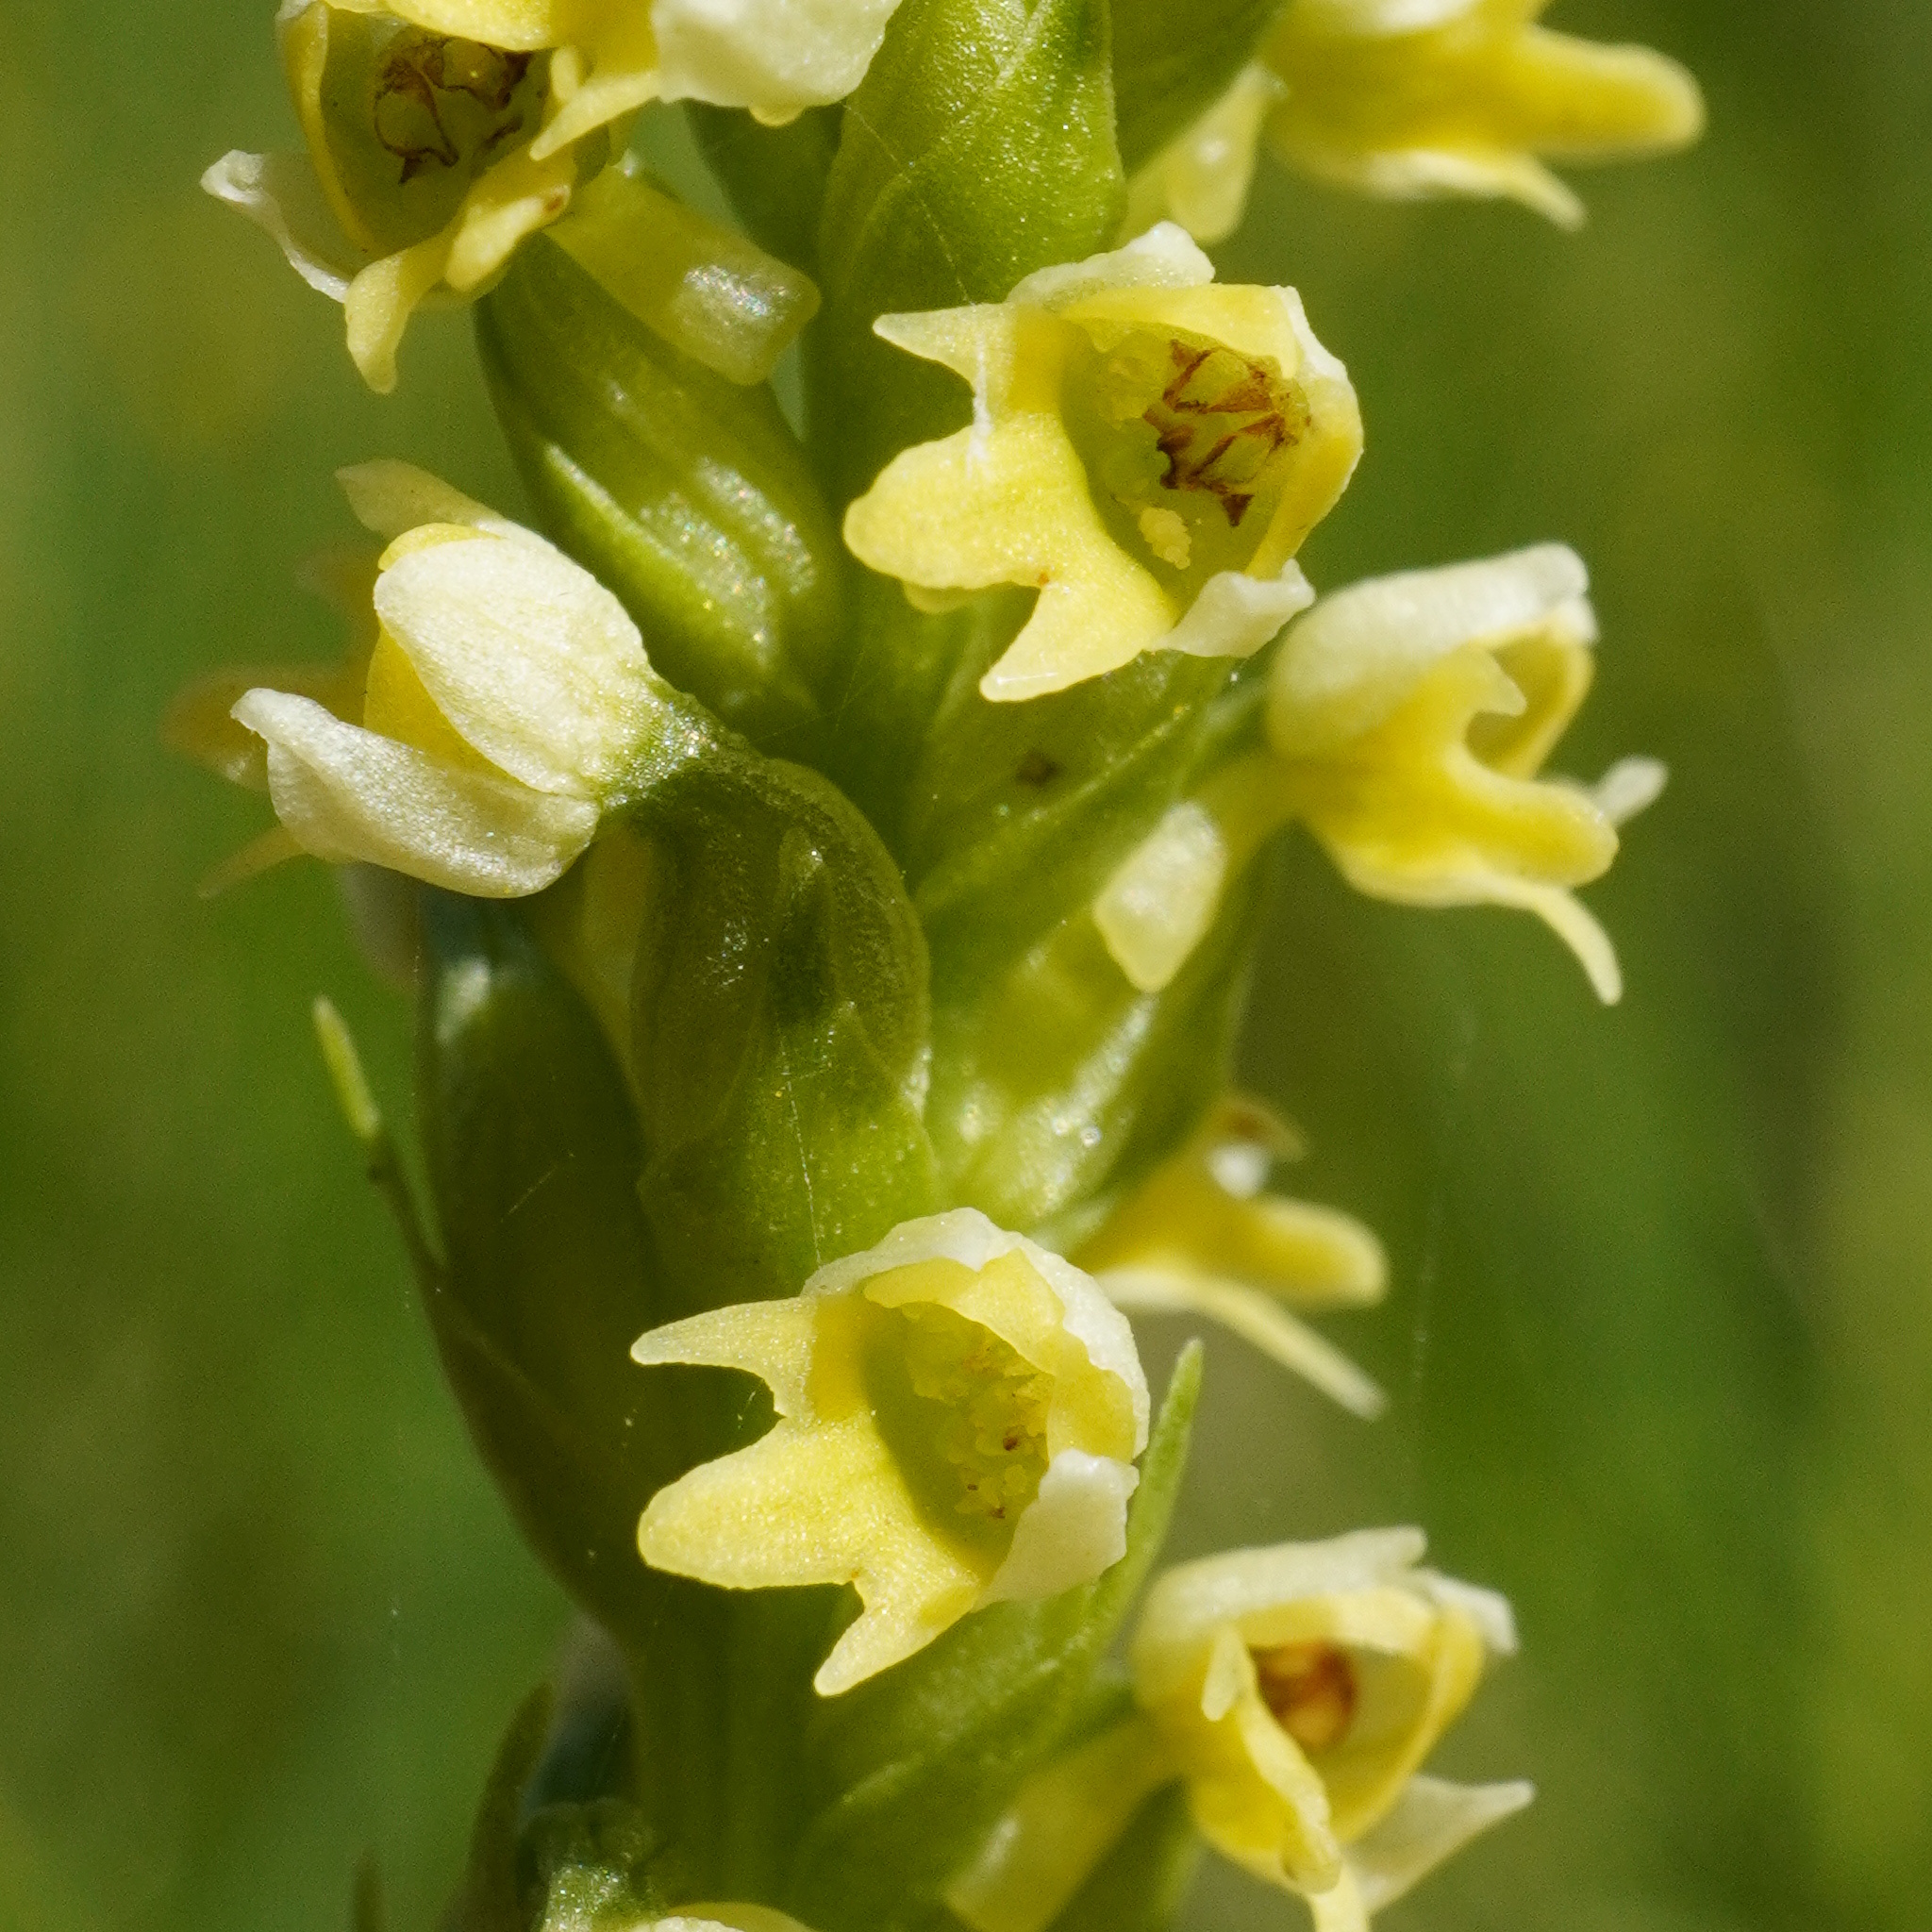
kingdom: Plantae
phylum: Tracheophyta
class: Liliopsida
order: Asparagales
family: Orchidaceae
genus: Pseudorchis
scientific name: Pseudorchis albida
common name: Small-white orchid
